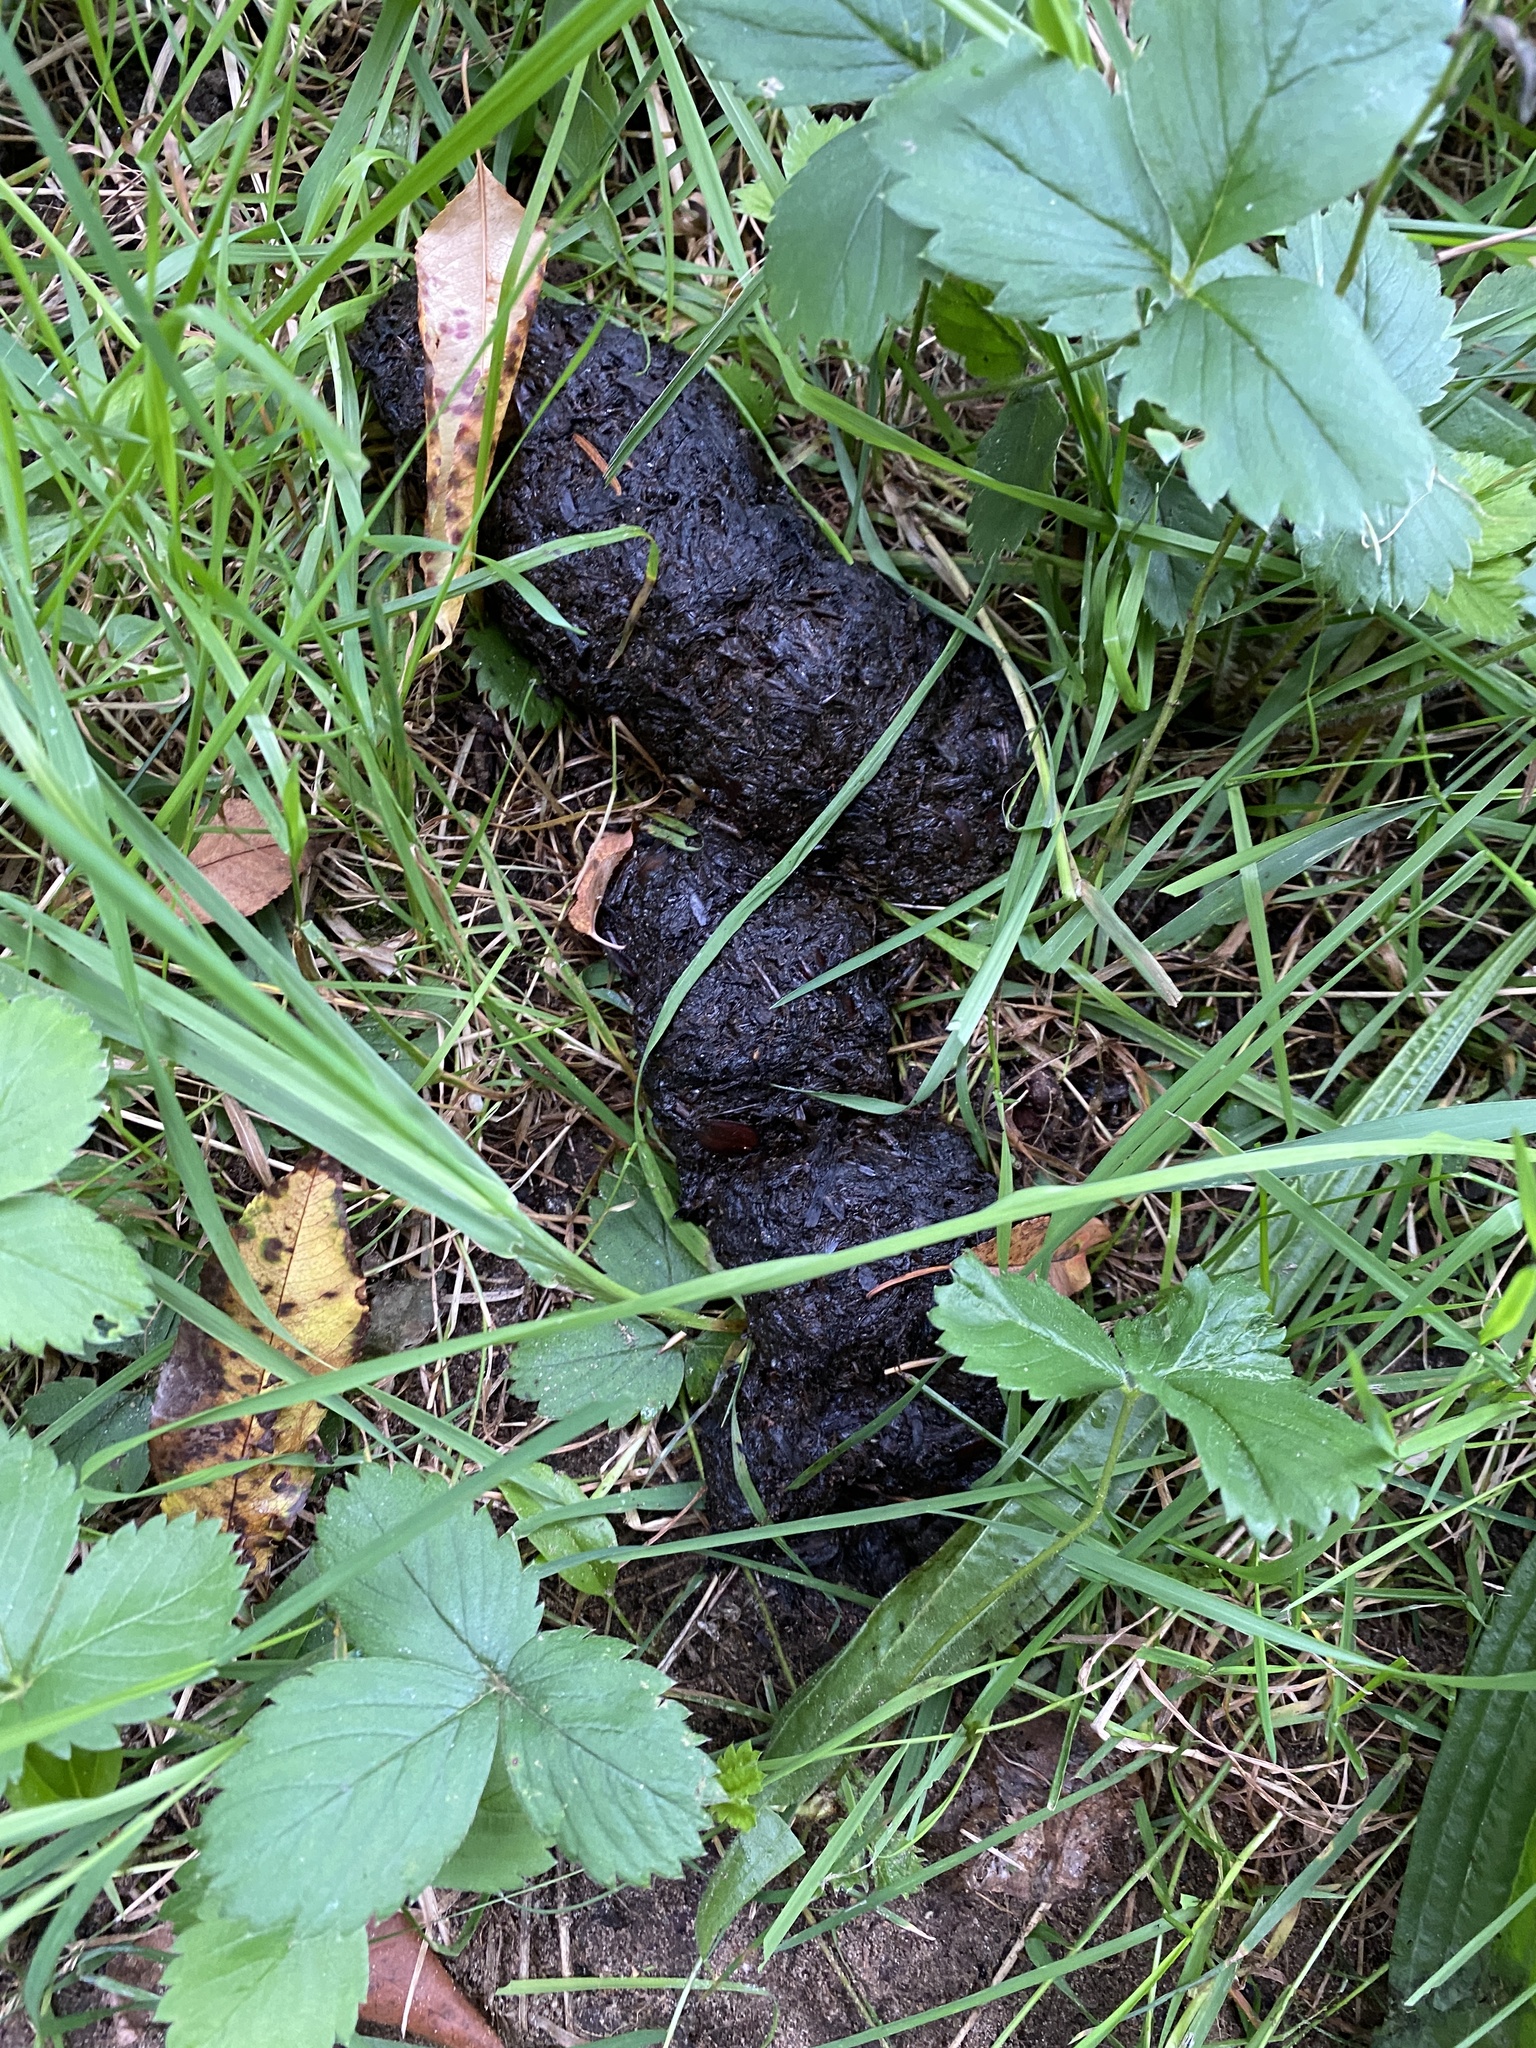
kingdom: Animalia
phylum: Chordata
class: Mammalia
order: Carnivora
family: Ursidae
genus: Ursus
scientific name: Ursus americanus
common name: American black bear
